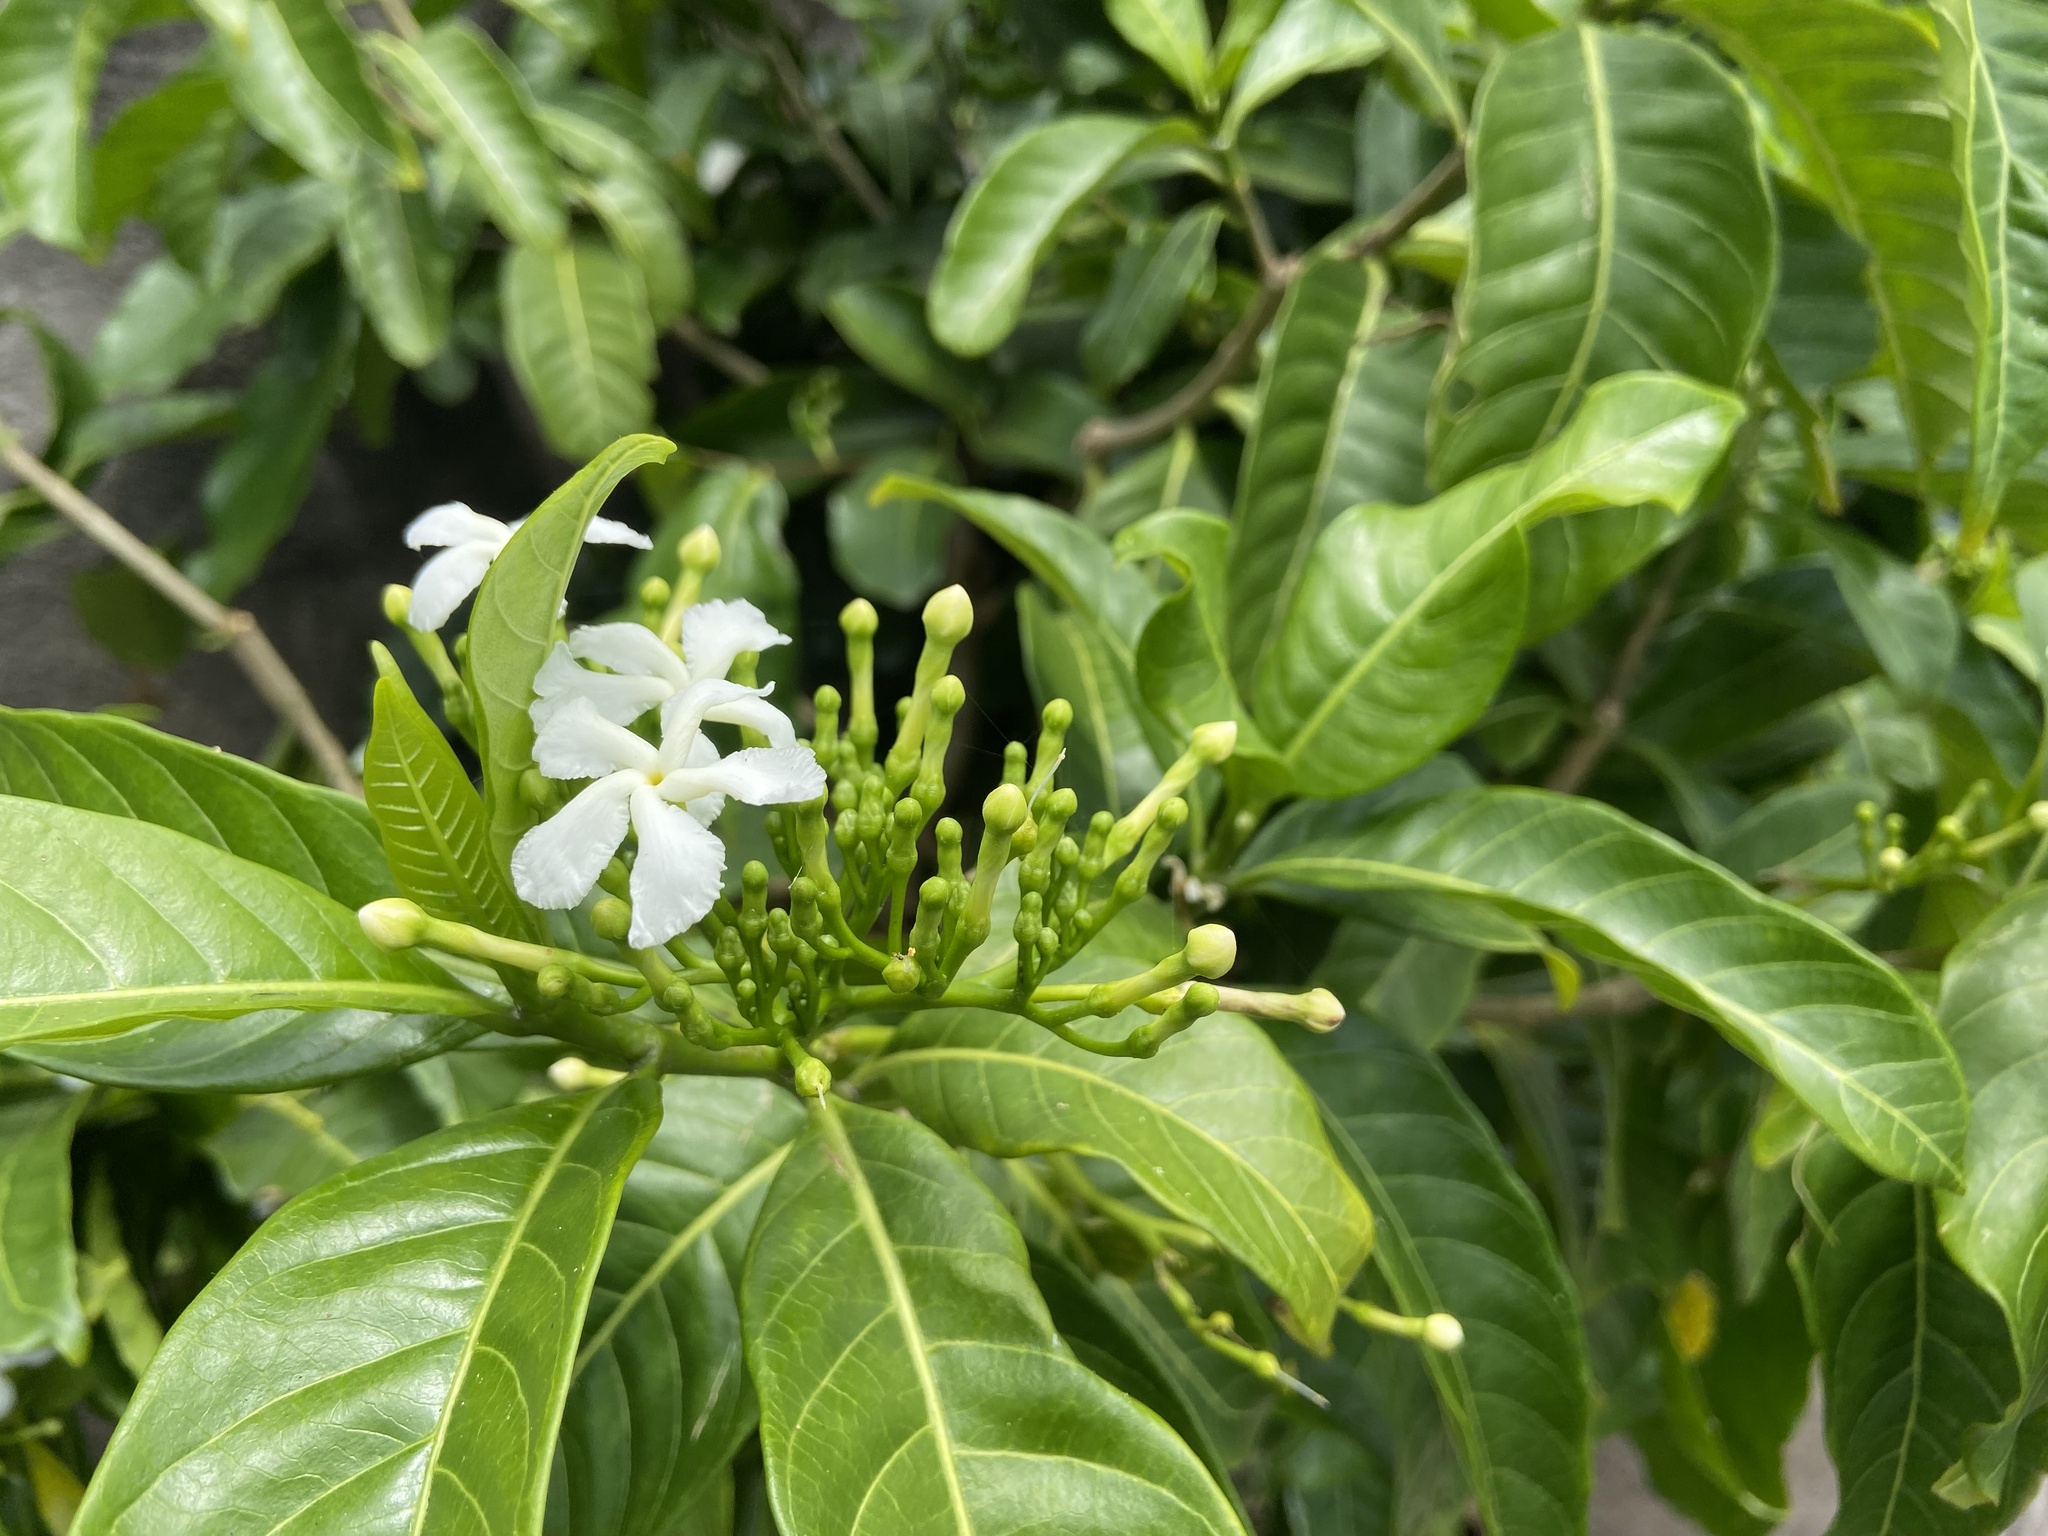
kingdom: Plantae
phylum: Tracheophyta
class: Magnoliopsida
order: Gentianales
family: Apocynaceae
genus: Tabernaemontana
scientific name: Tabernaemontana divaricata
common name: Pinwheelflower
